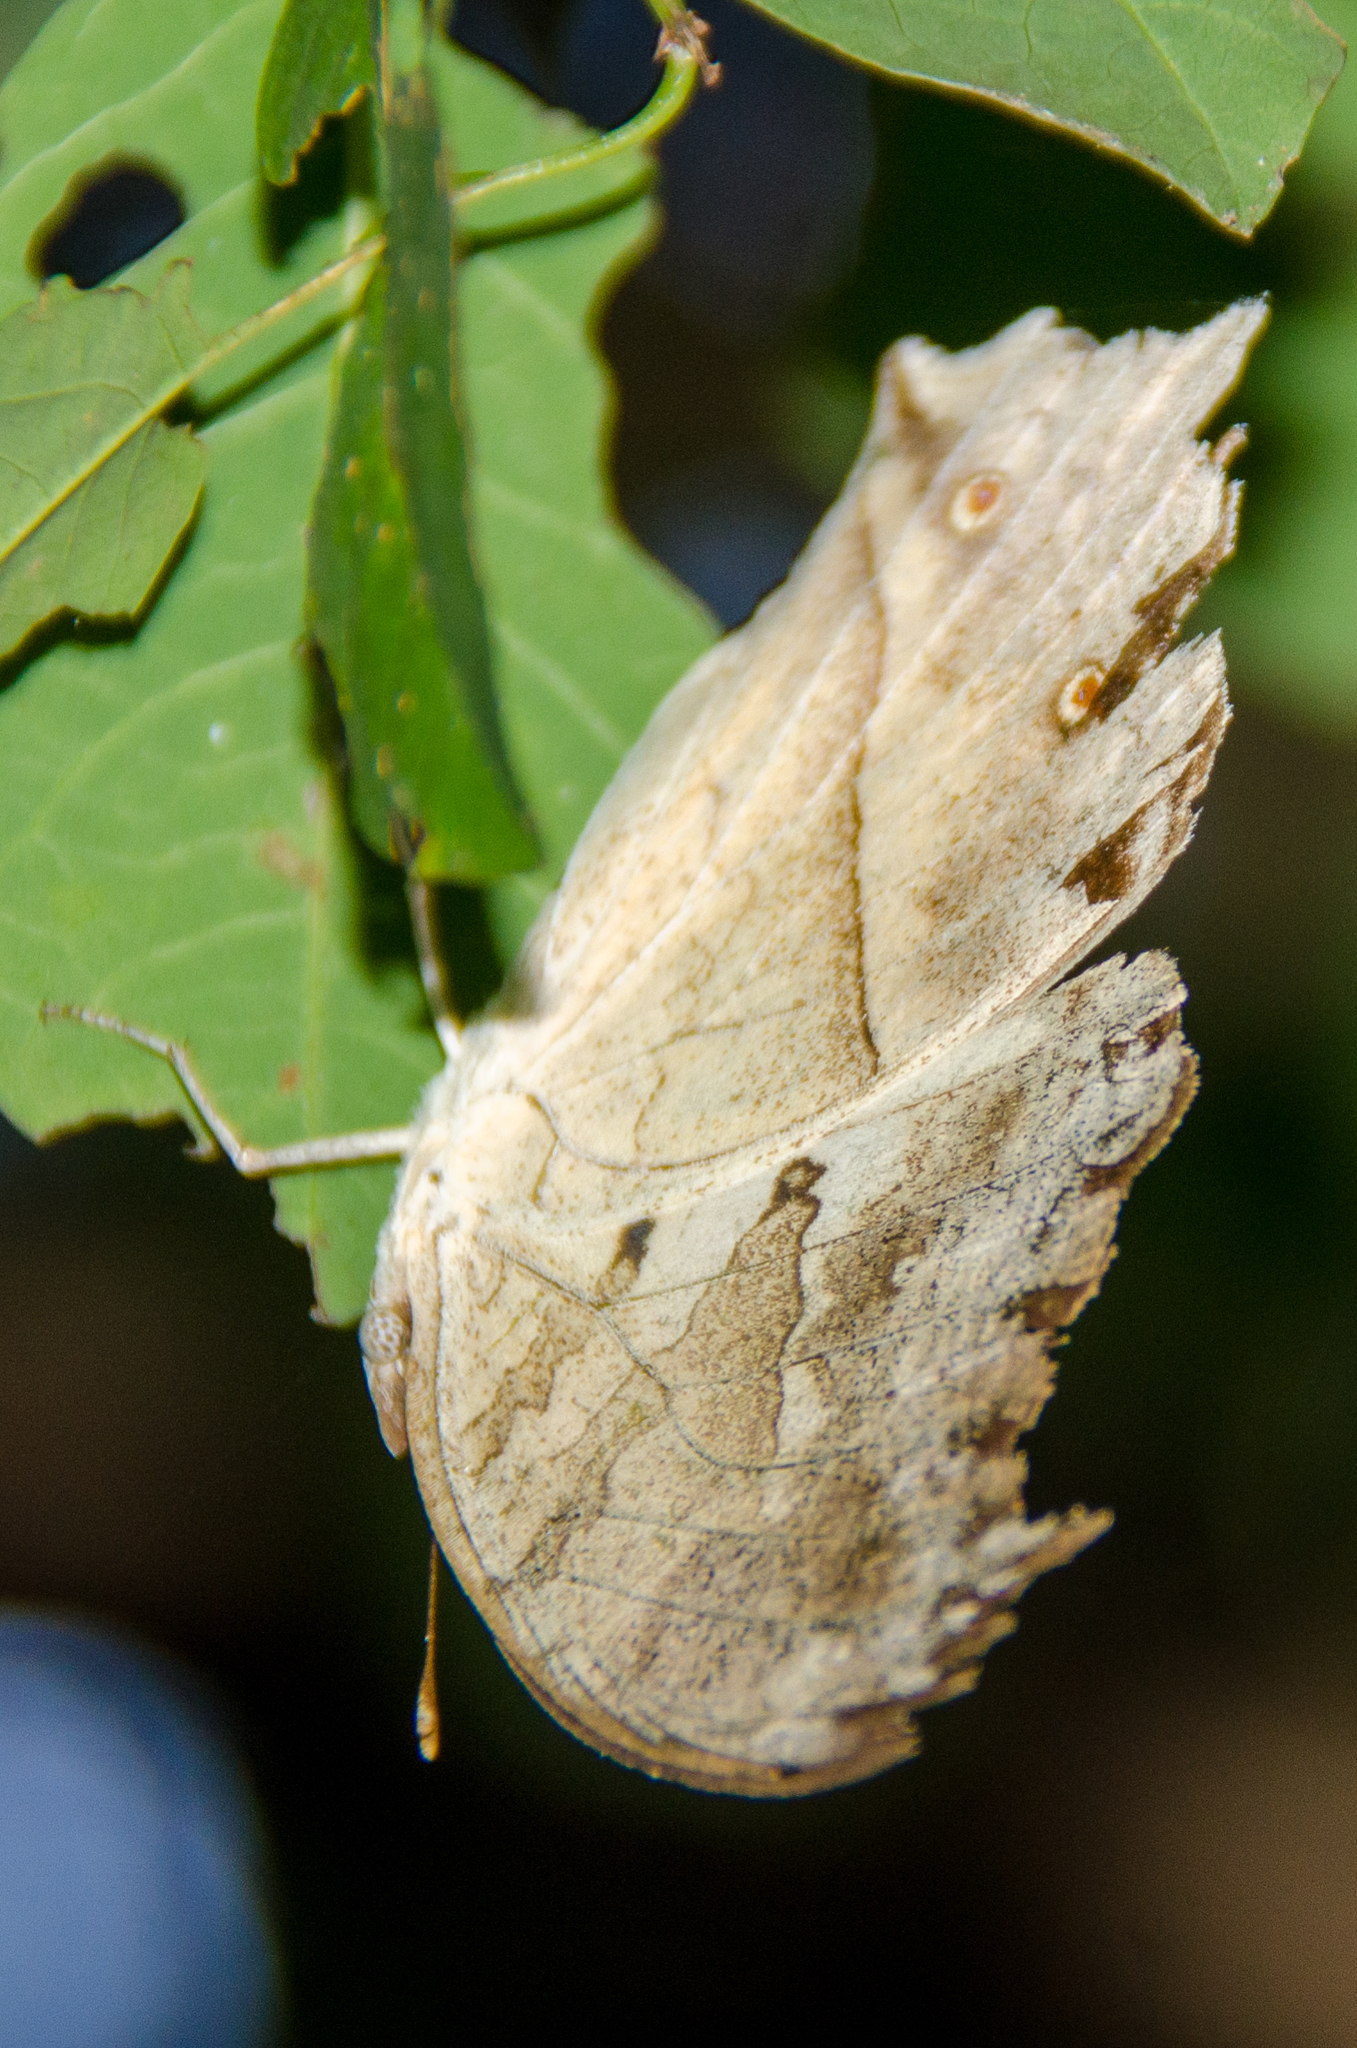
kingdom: Animalia
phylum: Arthropoda
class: Insecta
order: Lepidoptera
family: Nymphalidae
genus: Salamis
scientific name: Salamis Protogoniomorpha parhassus
